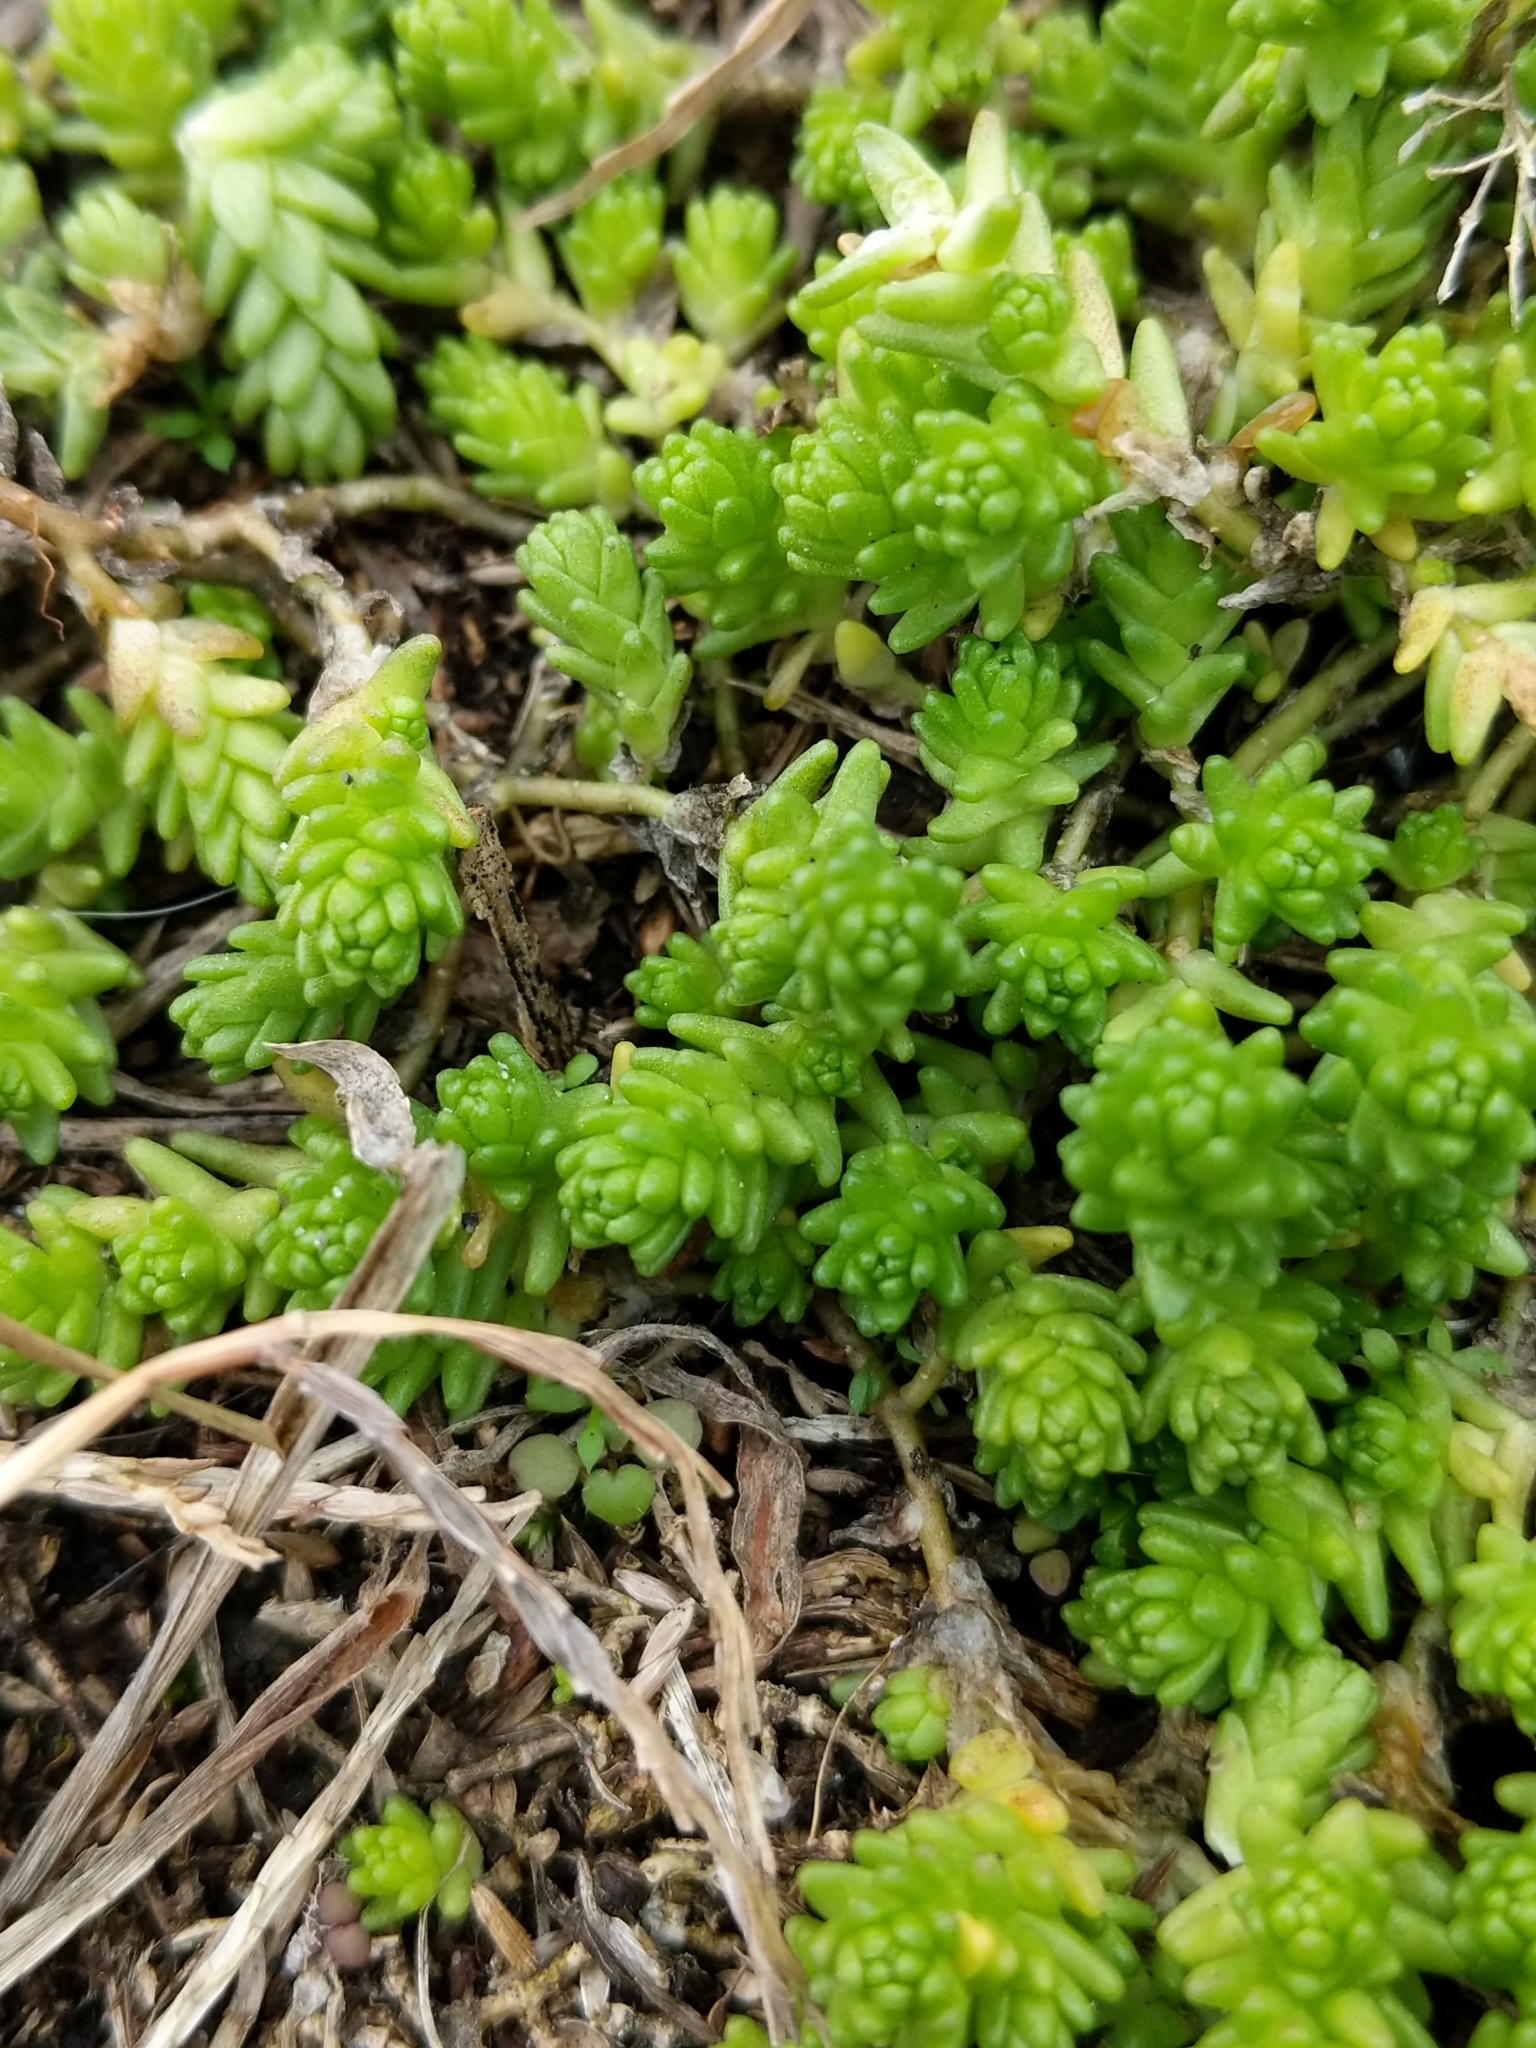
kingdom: Plantae
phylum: Tracheophyta
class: Magnoliopsida
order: Saxifragales
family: Crassulaceae
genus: Sedum
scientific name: Sedum acre
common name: Biting stonecrop
